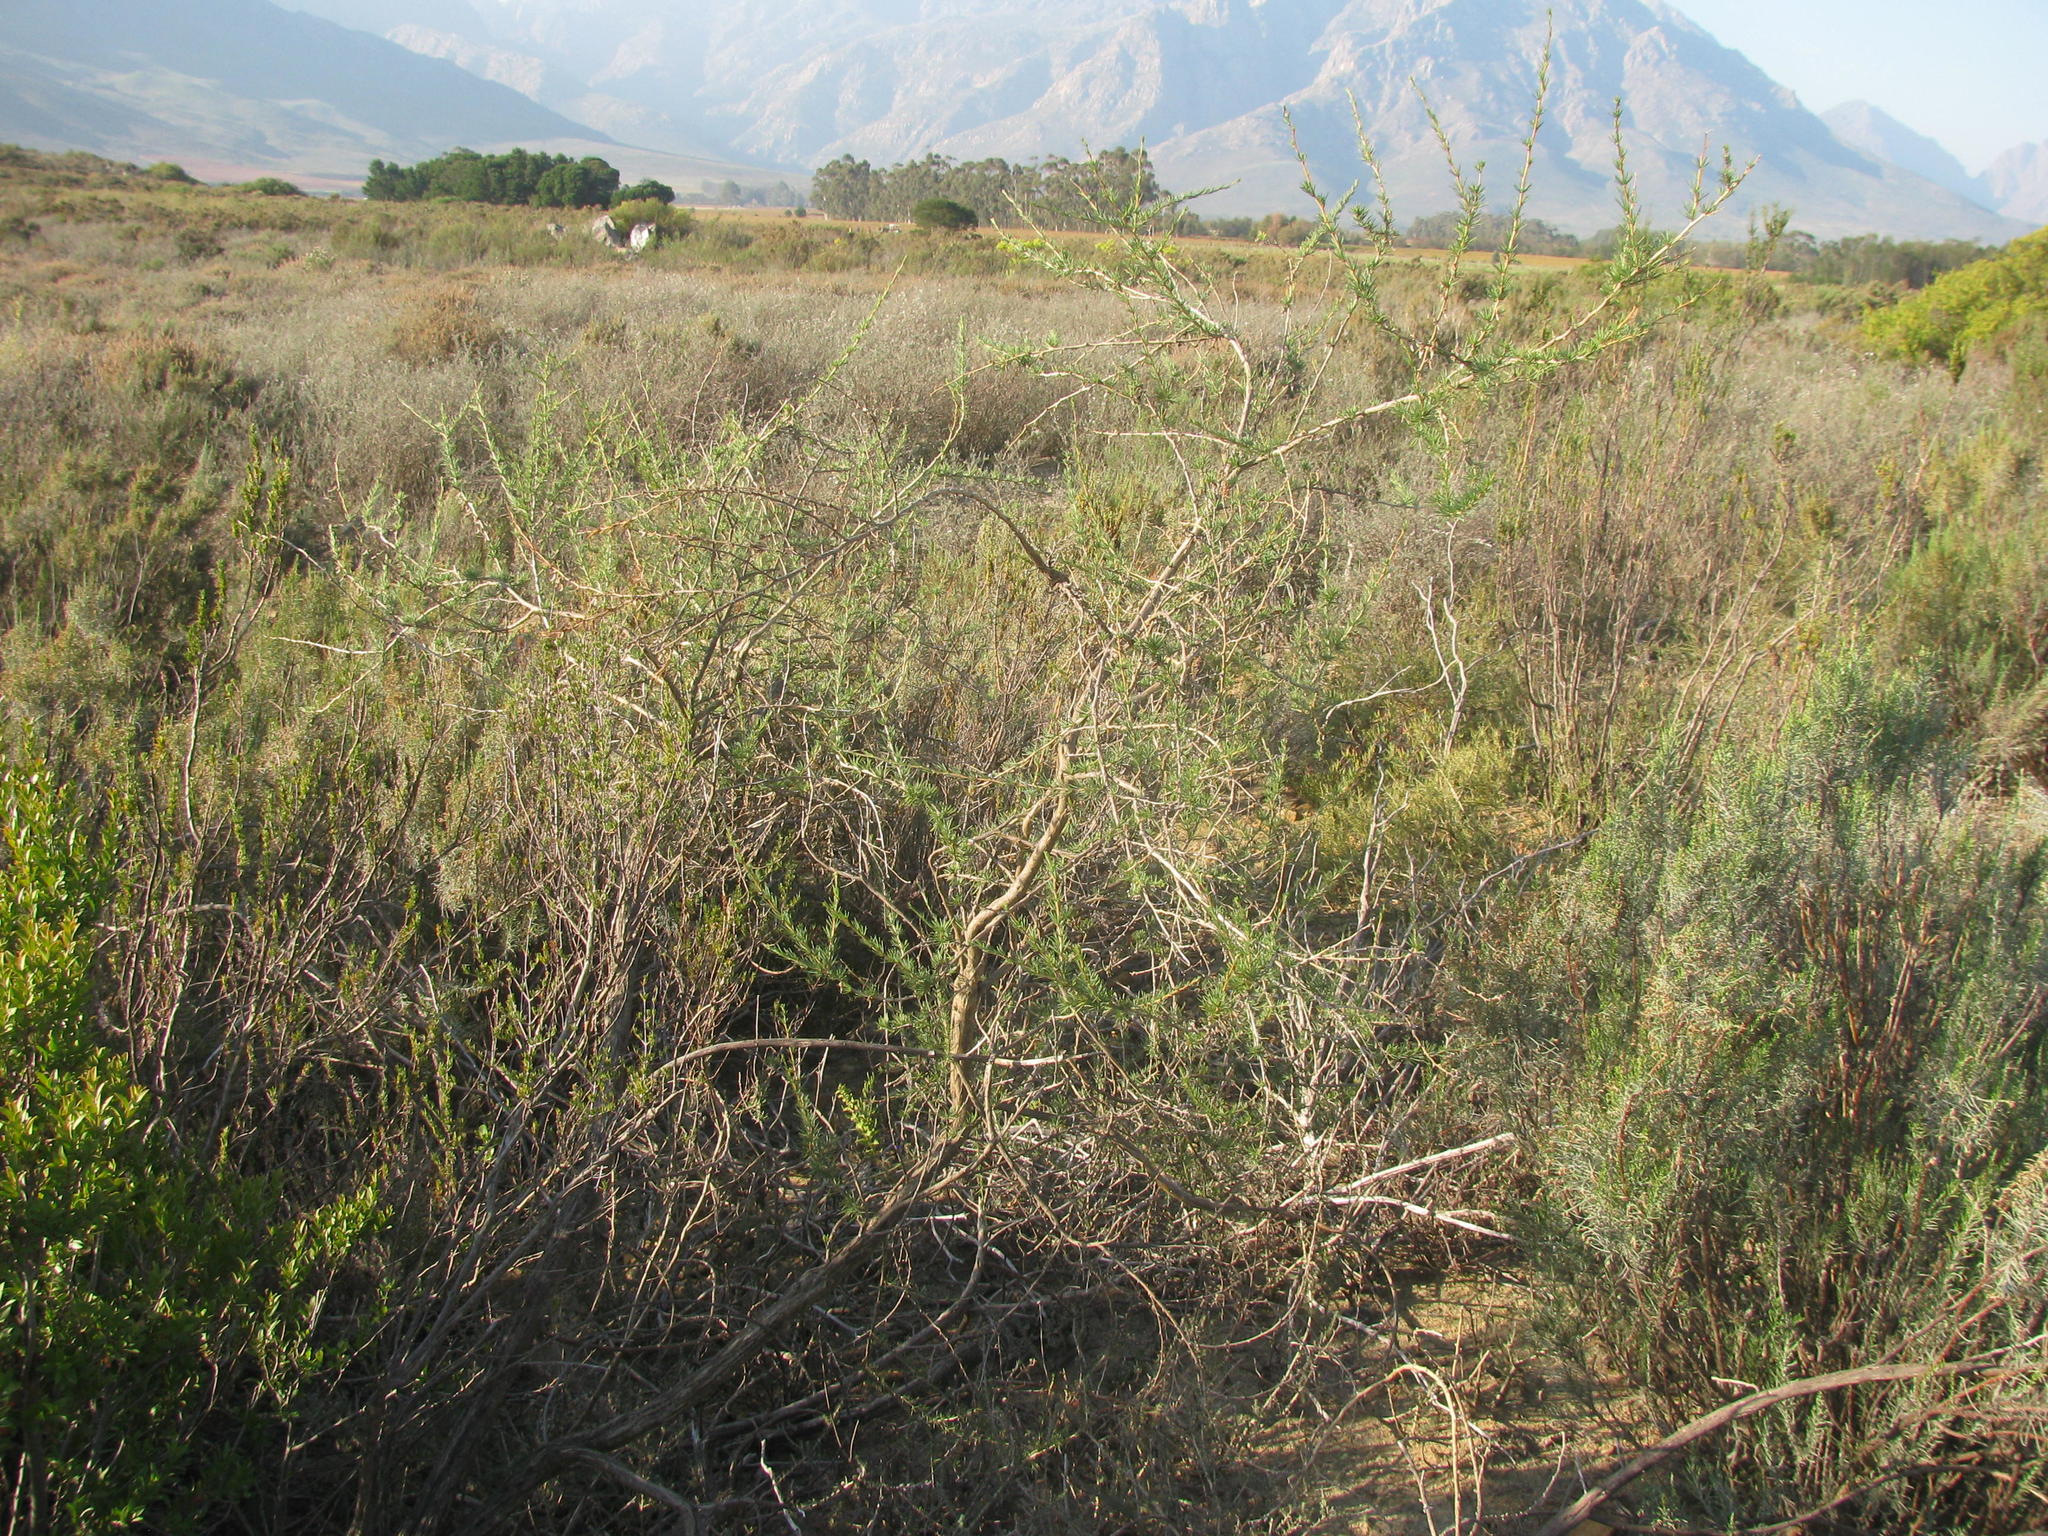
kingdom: Plantae
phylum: Tracheophyta
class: Magnoliopsida
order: Fabales
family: Fabaceae
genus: Aspalathus
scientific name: Aspalathus uniflora
